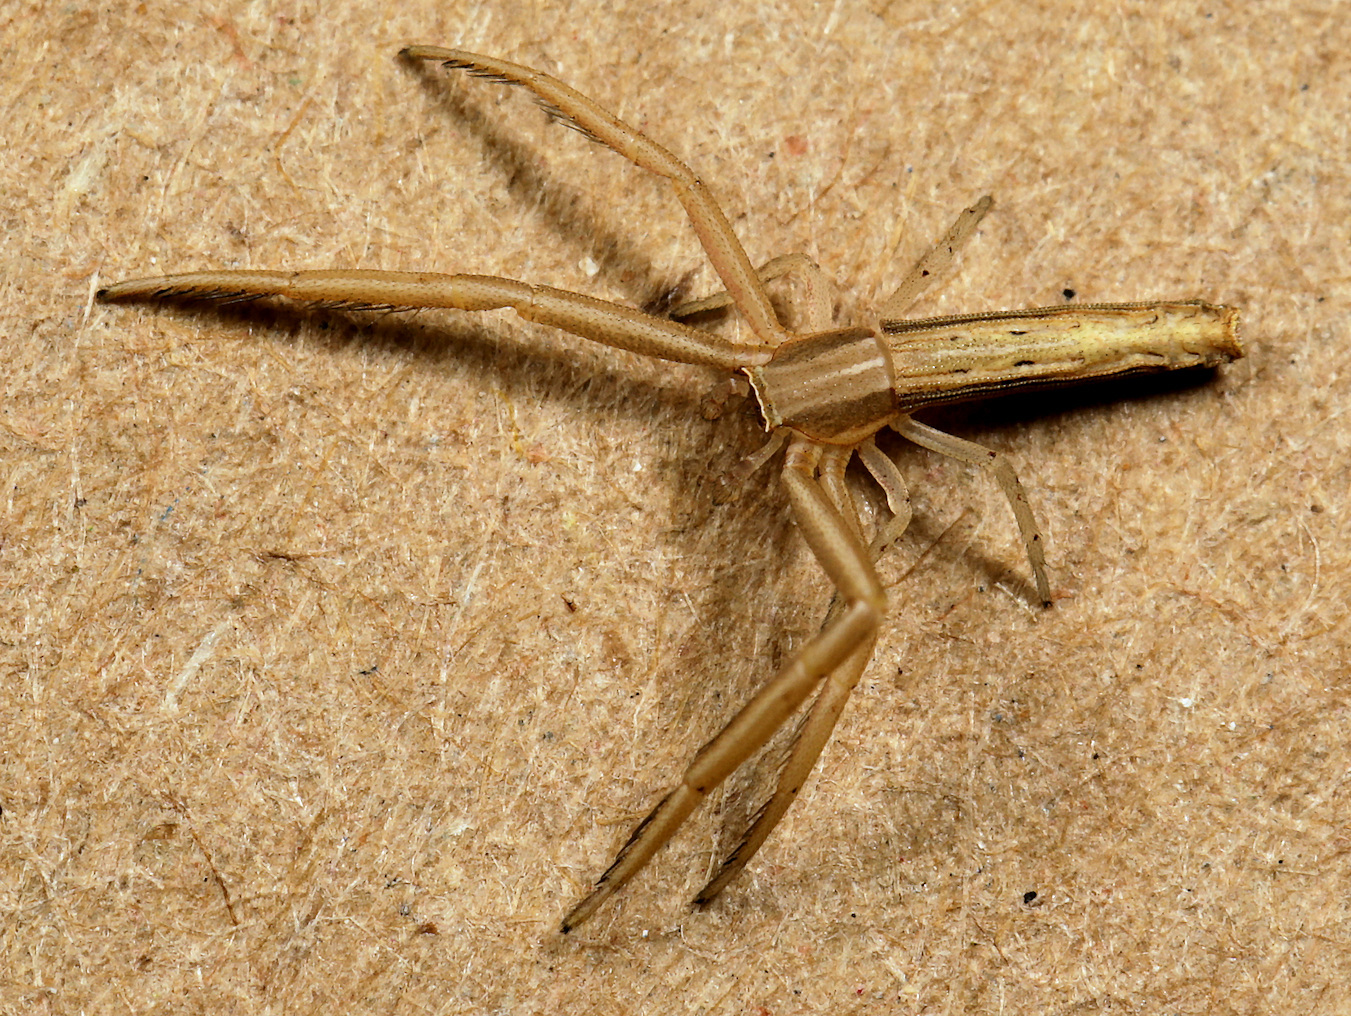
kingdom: Animalia
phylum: Arthropoda
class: Arachnida
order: Araneae
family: Thomisidae
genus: Runcinia
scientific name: Runcinia flavida
